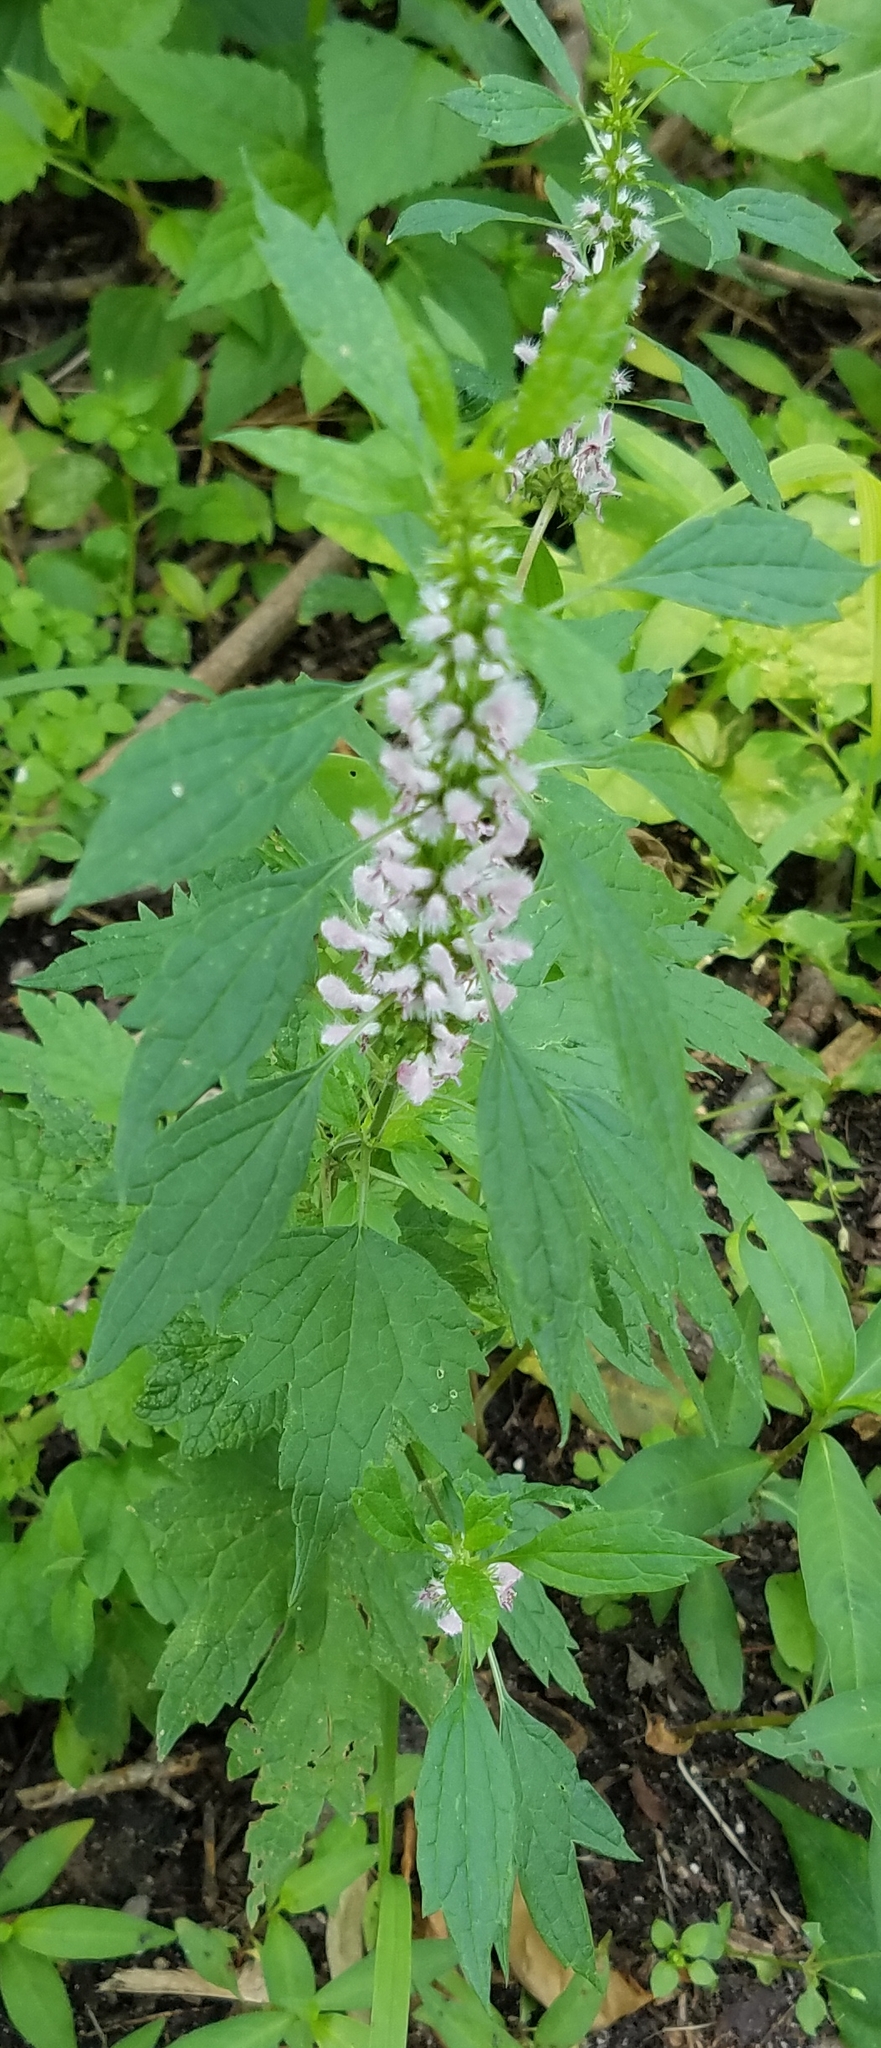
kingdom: Plantae
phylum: Tracheophyta
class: Magnoliopsida
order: Lamiales
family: Lamiaceae
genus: Leonurus
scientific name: Leonurus cardiaca
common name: Motherwort
